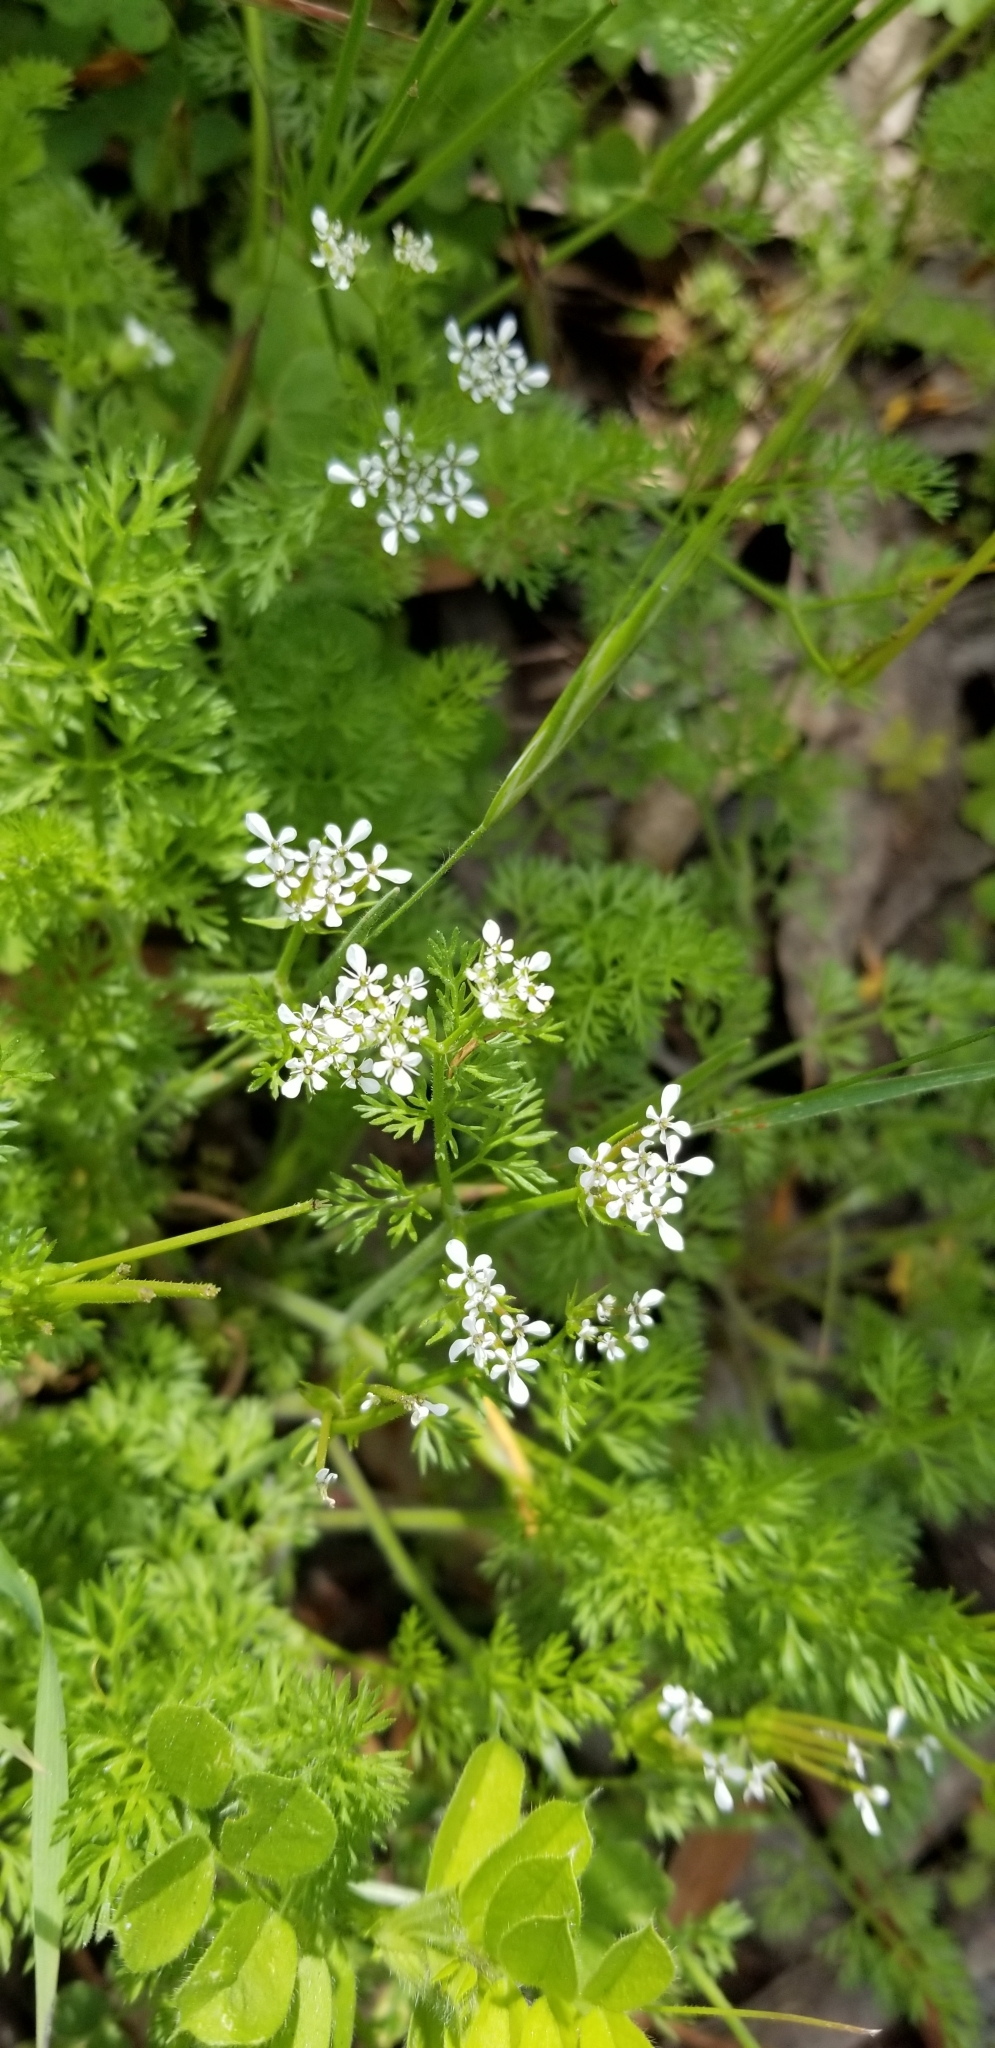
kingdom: Plantae
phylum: Tracheophyta
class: Magnoliopsida
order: Apiales
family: Apiaceae
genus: Scandix
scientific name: Scandix pecten-veneris
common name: Shepherd's-needle
